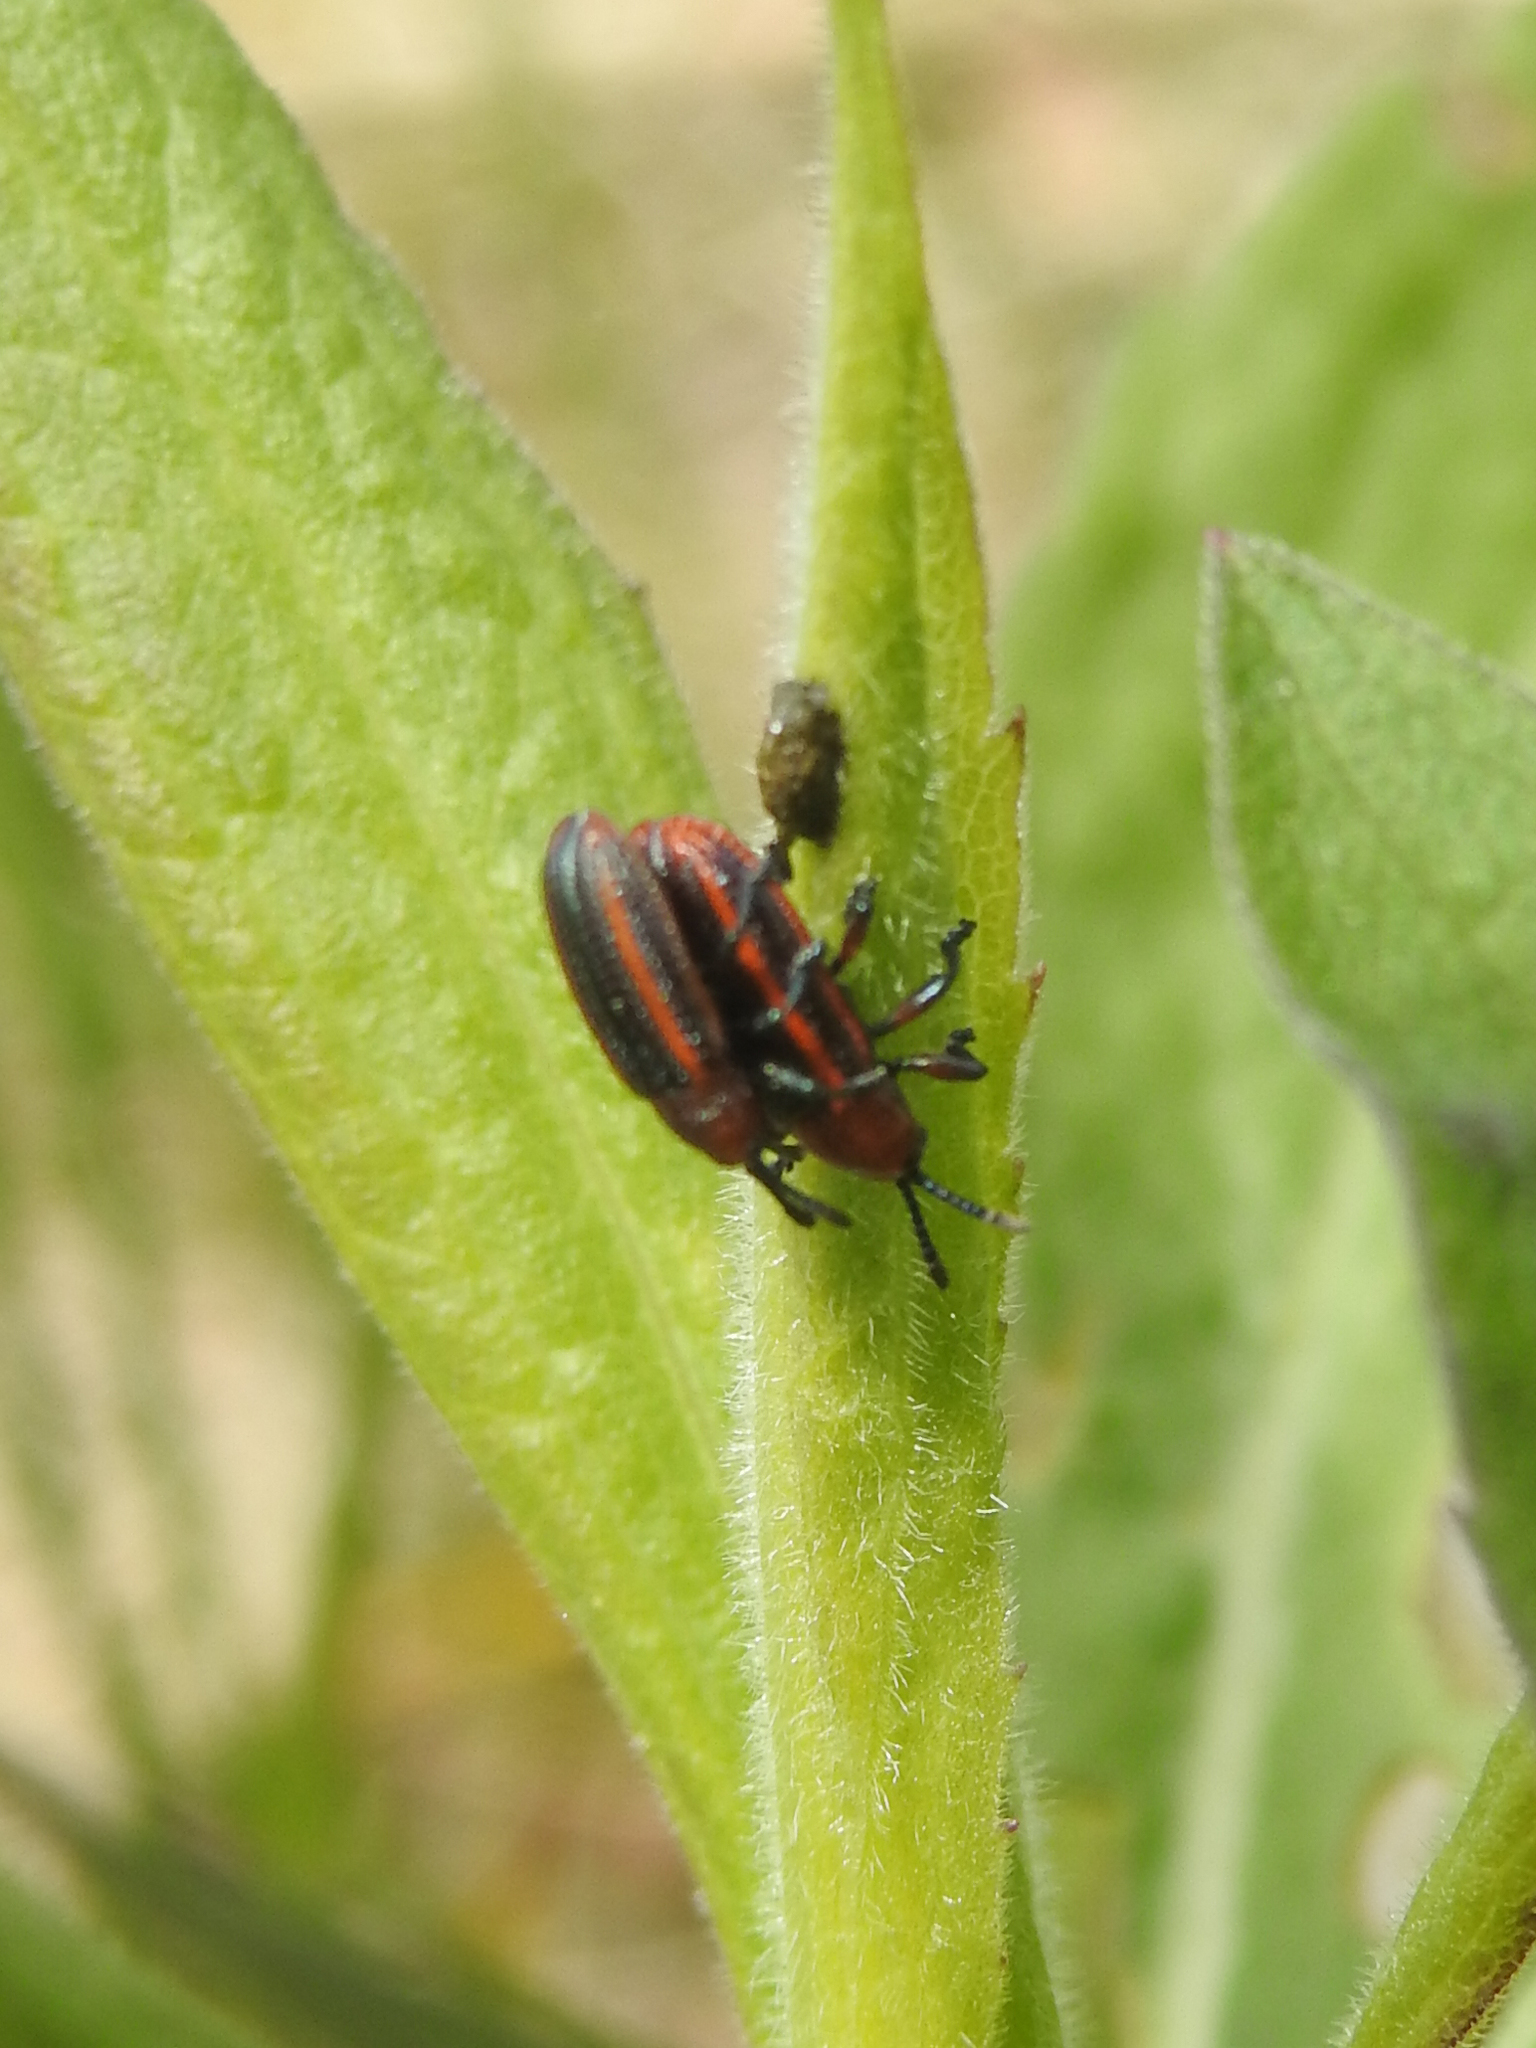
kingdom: Animalia
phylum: Arthropoda
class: Insecta
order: Coleoptera
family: Chrysomelidae
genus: Microrhopala
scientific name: Microrhopala vittata
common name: Goldenrod leaf miner beetle
